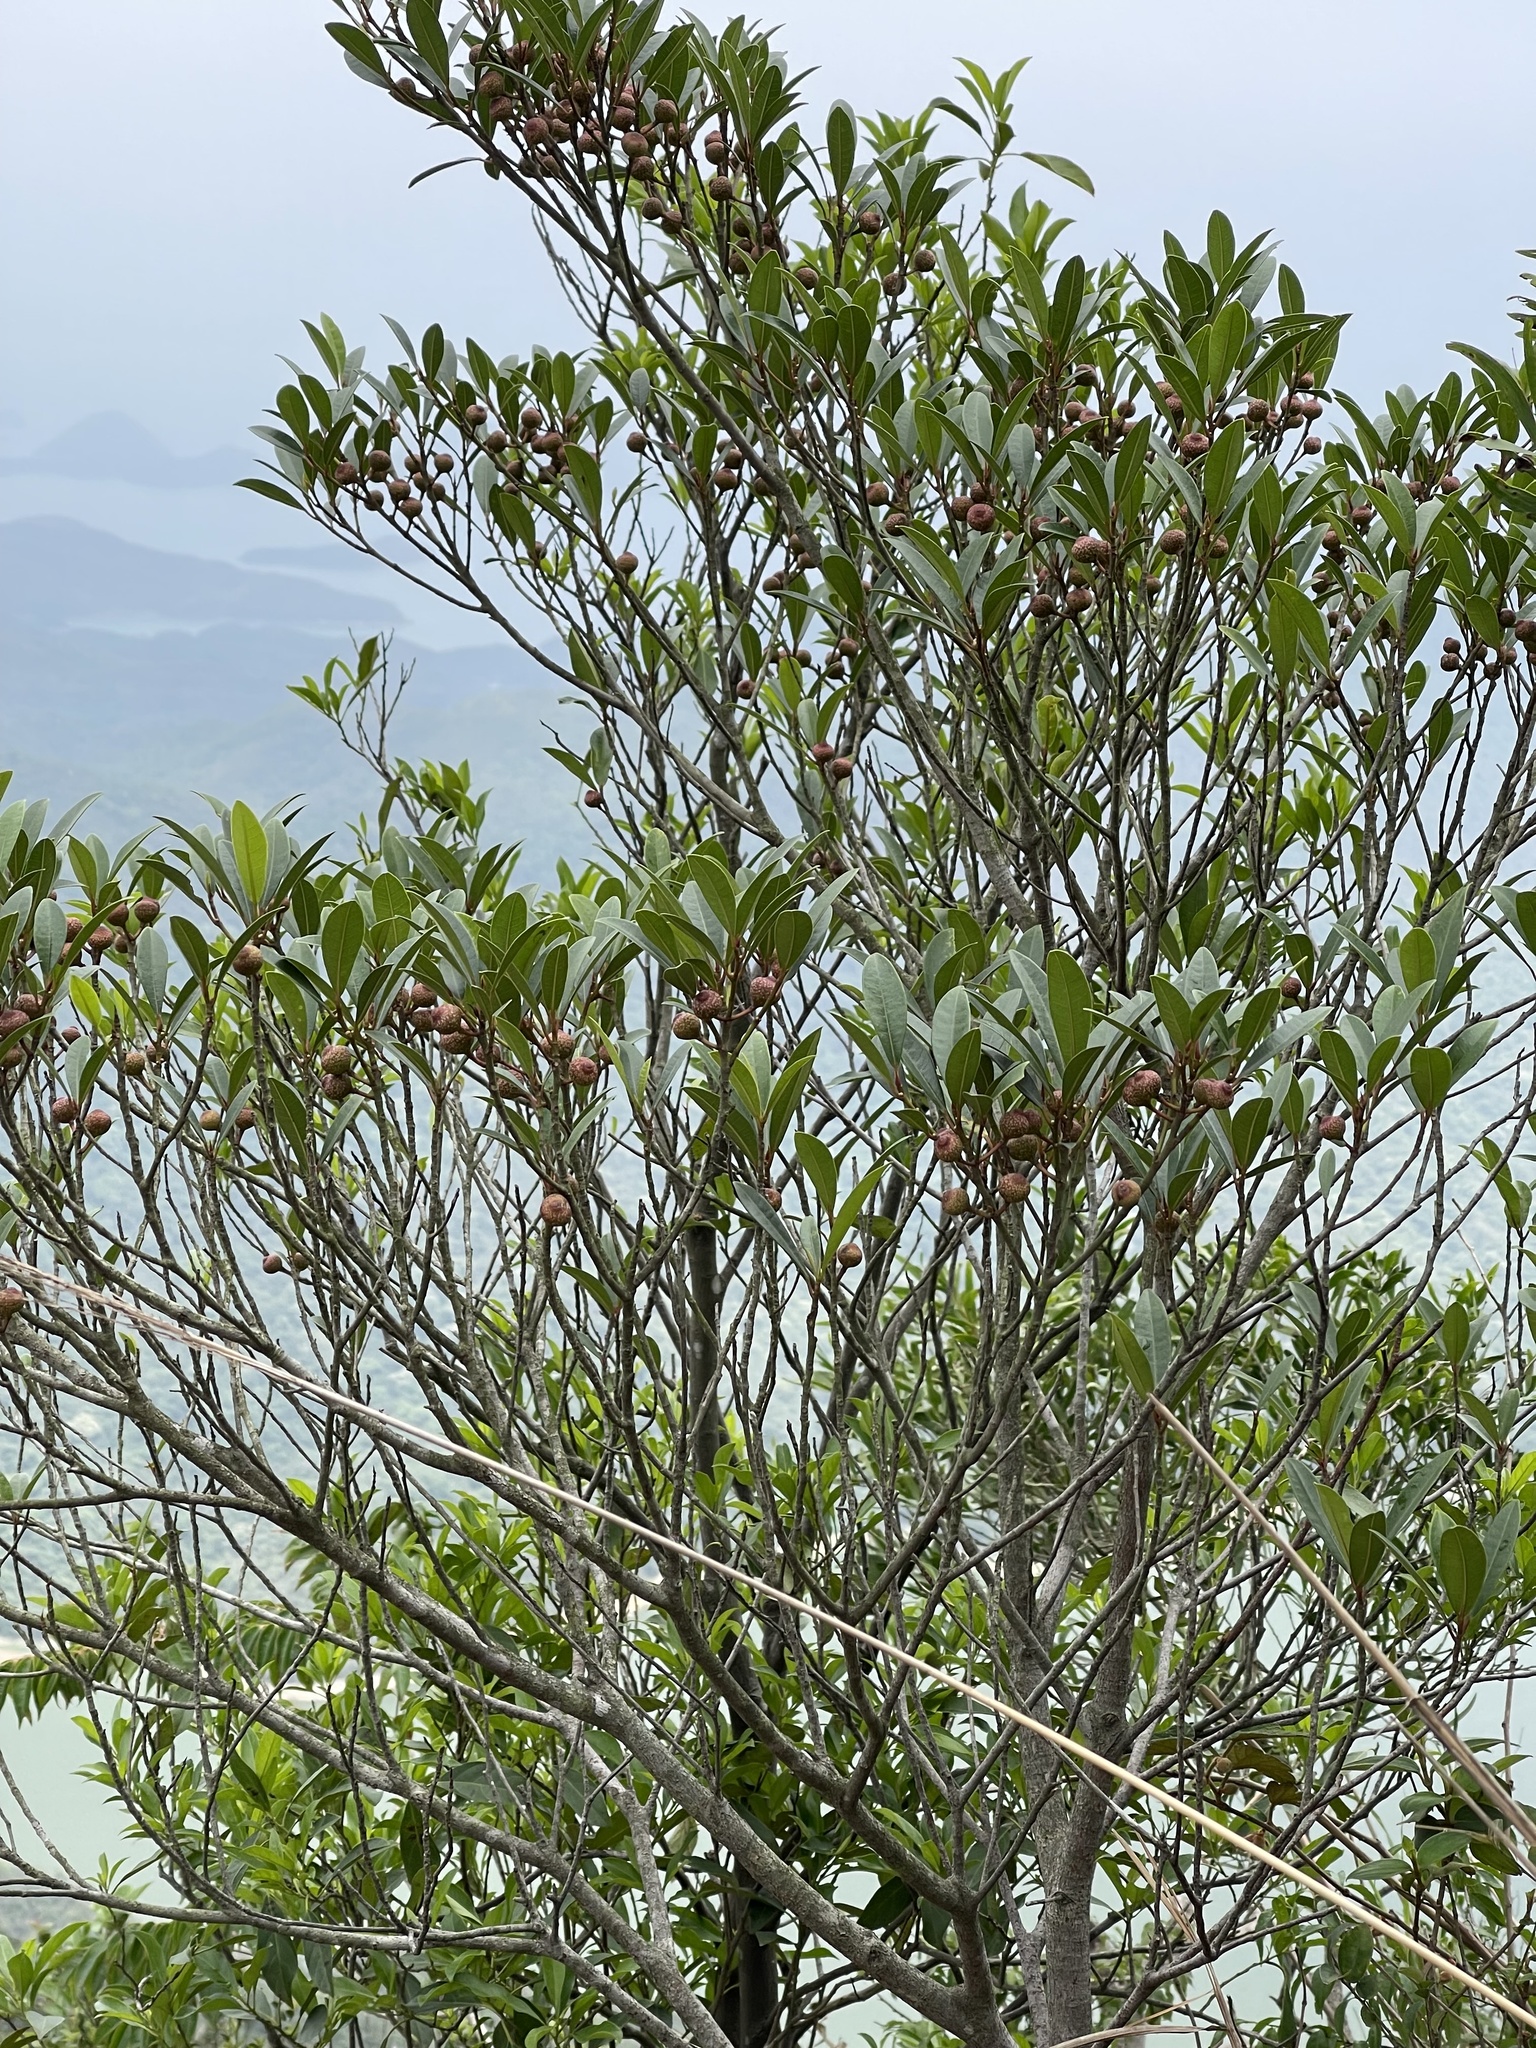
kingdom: Plantae
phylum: Tracheophyta
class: Magnoliopsida
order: Rosales
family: Moraceae
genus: Ficus
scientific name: Ficus variolosa
